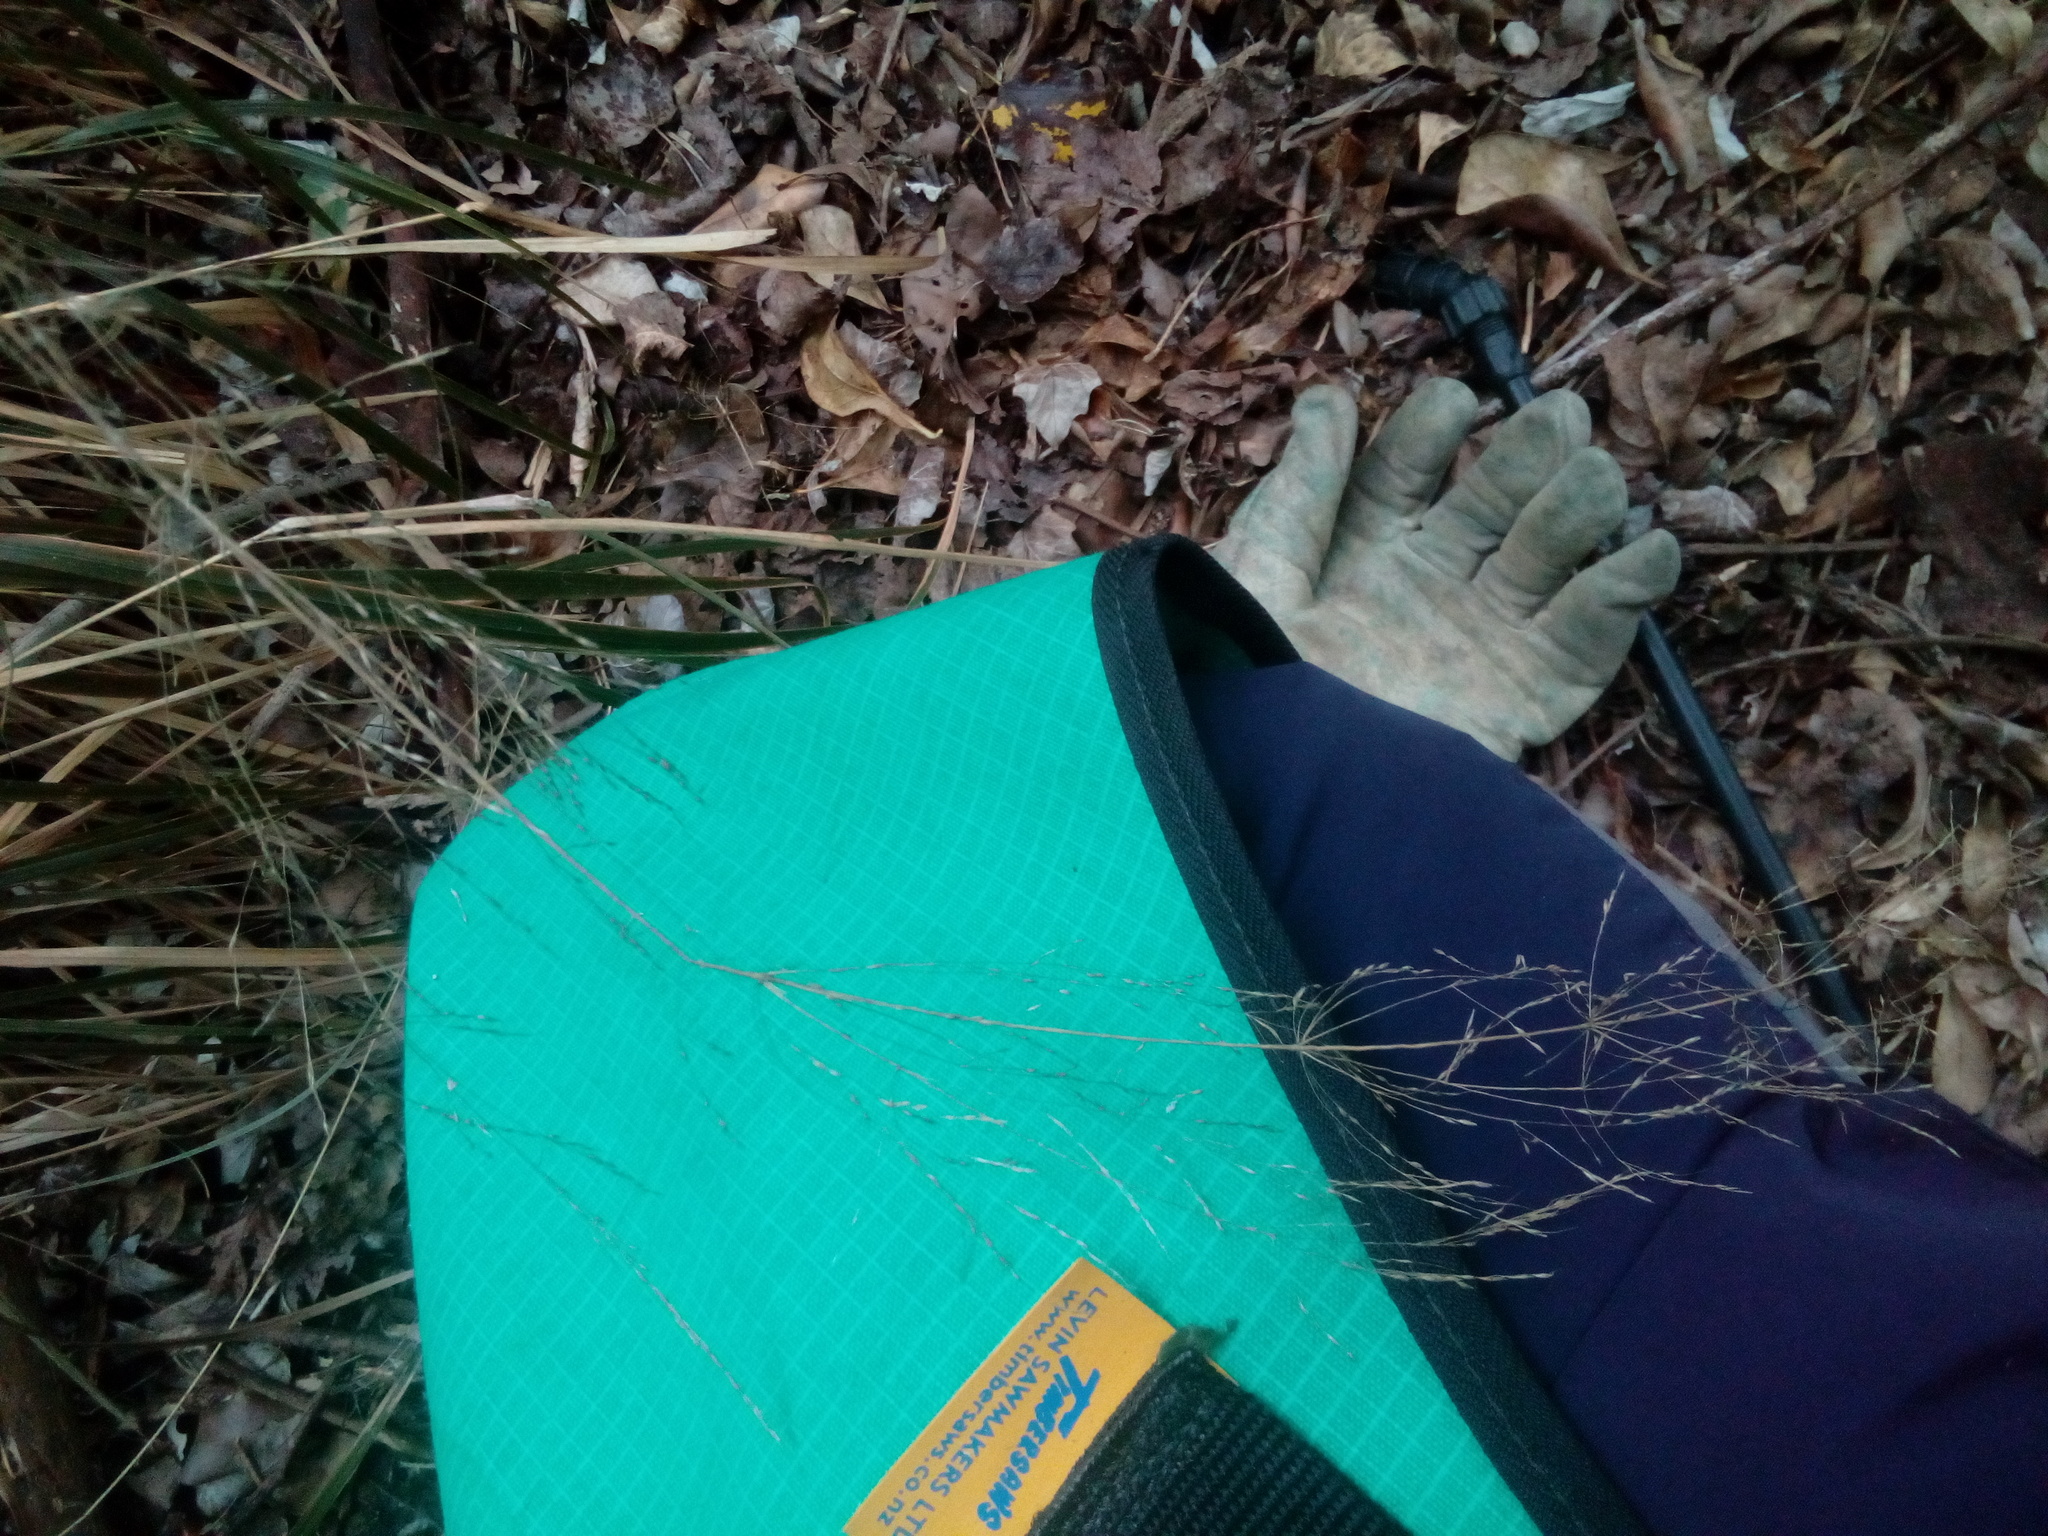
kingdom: Plantae
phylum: Tracheophyta
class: Liliopsida
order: Poales
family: Poaceae
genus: Anemanthele
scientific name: Anemanthele lessoniana
